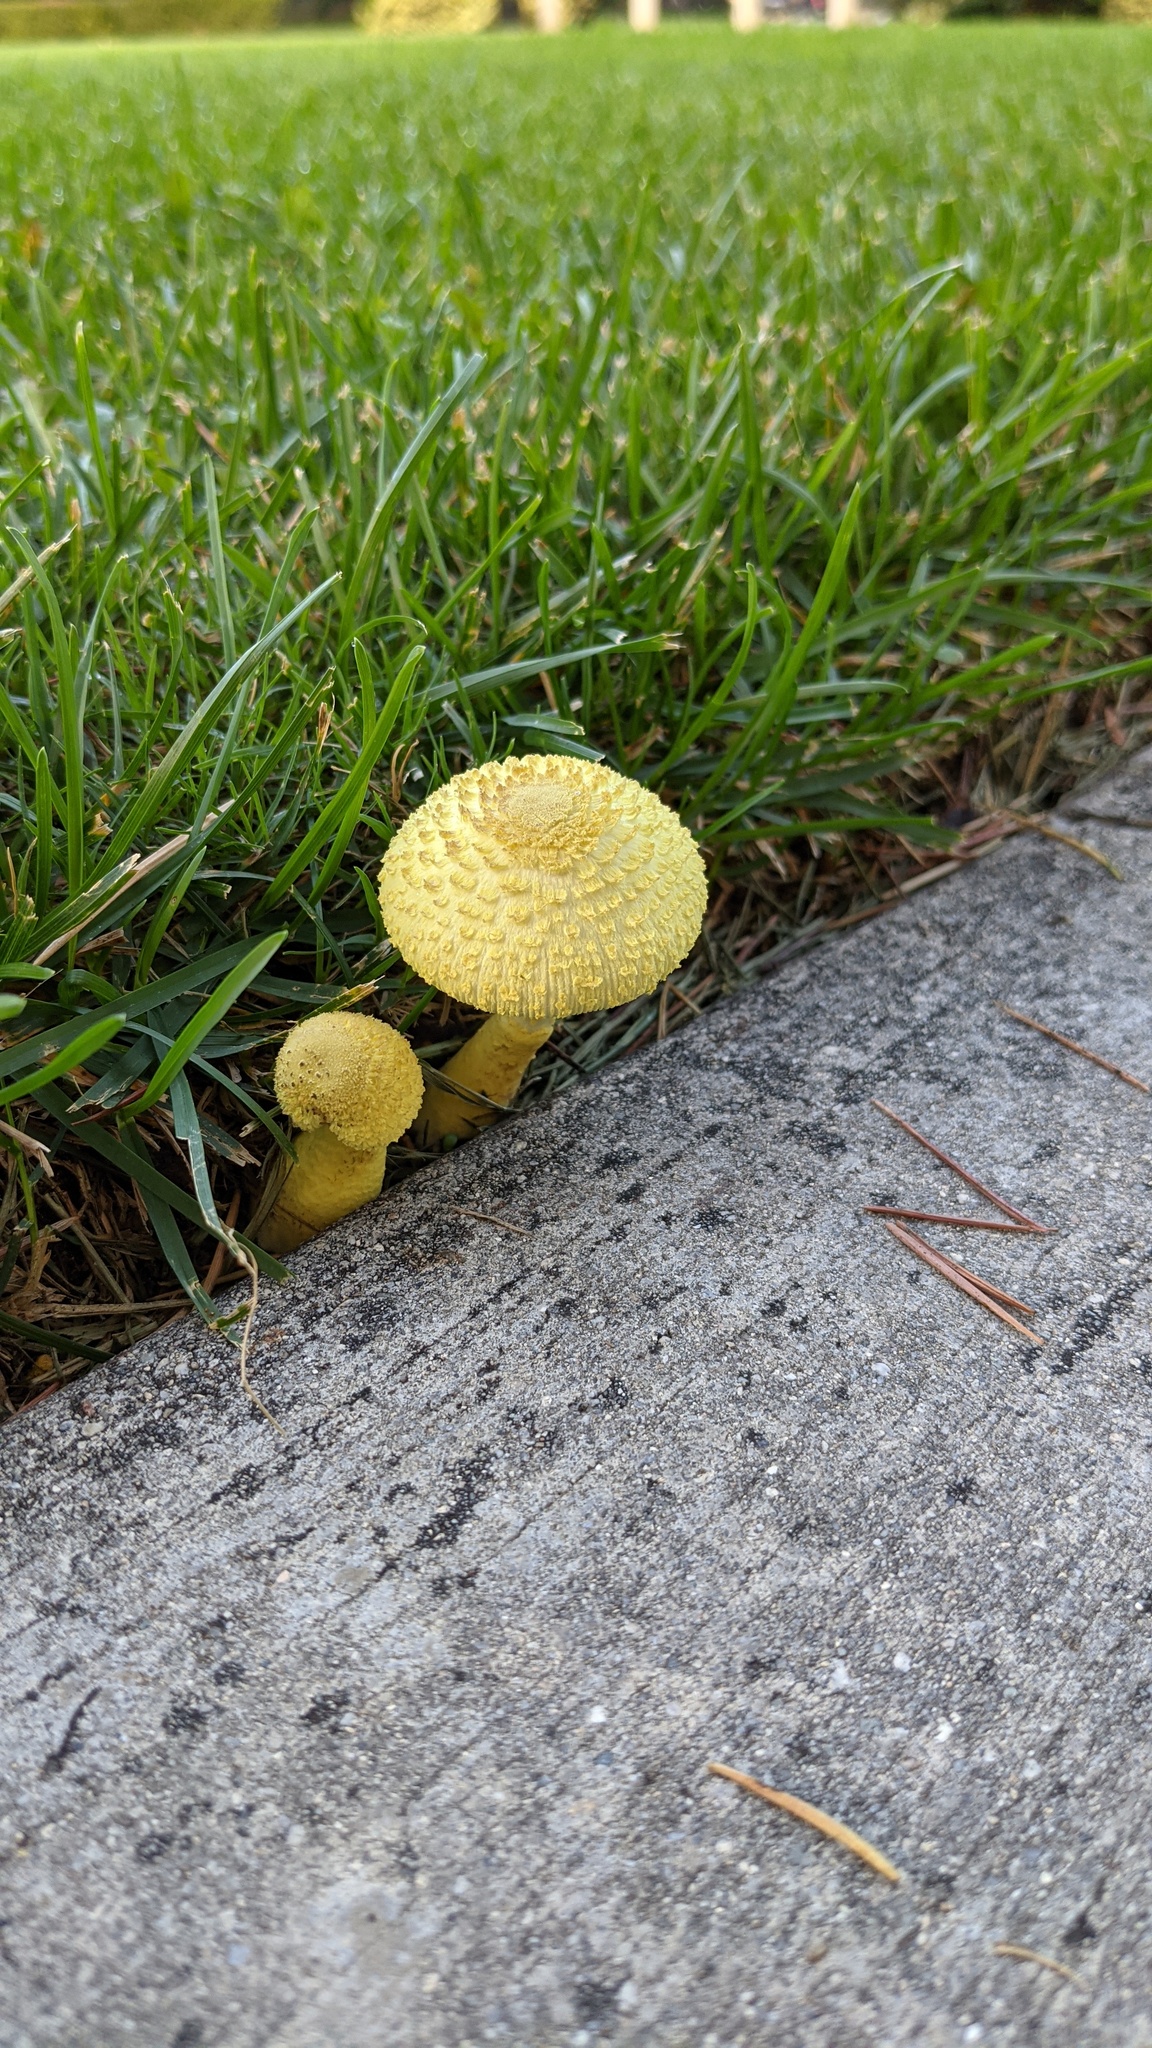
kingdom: Fungi
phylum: Basidiomycota
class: Agaricomycetes
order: Agaricales
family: Agaricaceae
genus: Leucocoprinus
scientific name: Leucocoprinus birnbaumii
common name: Plantpot dapperling
